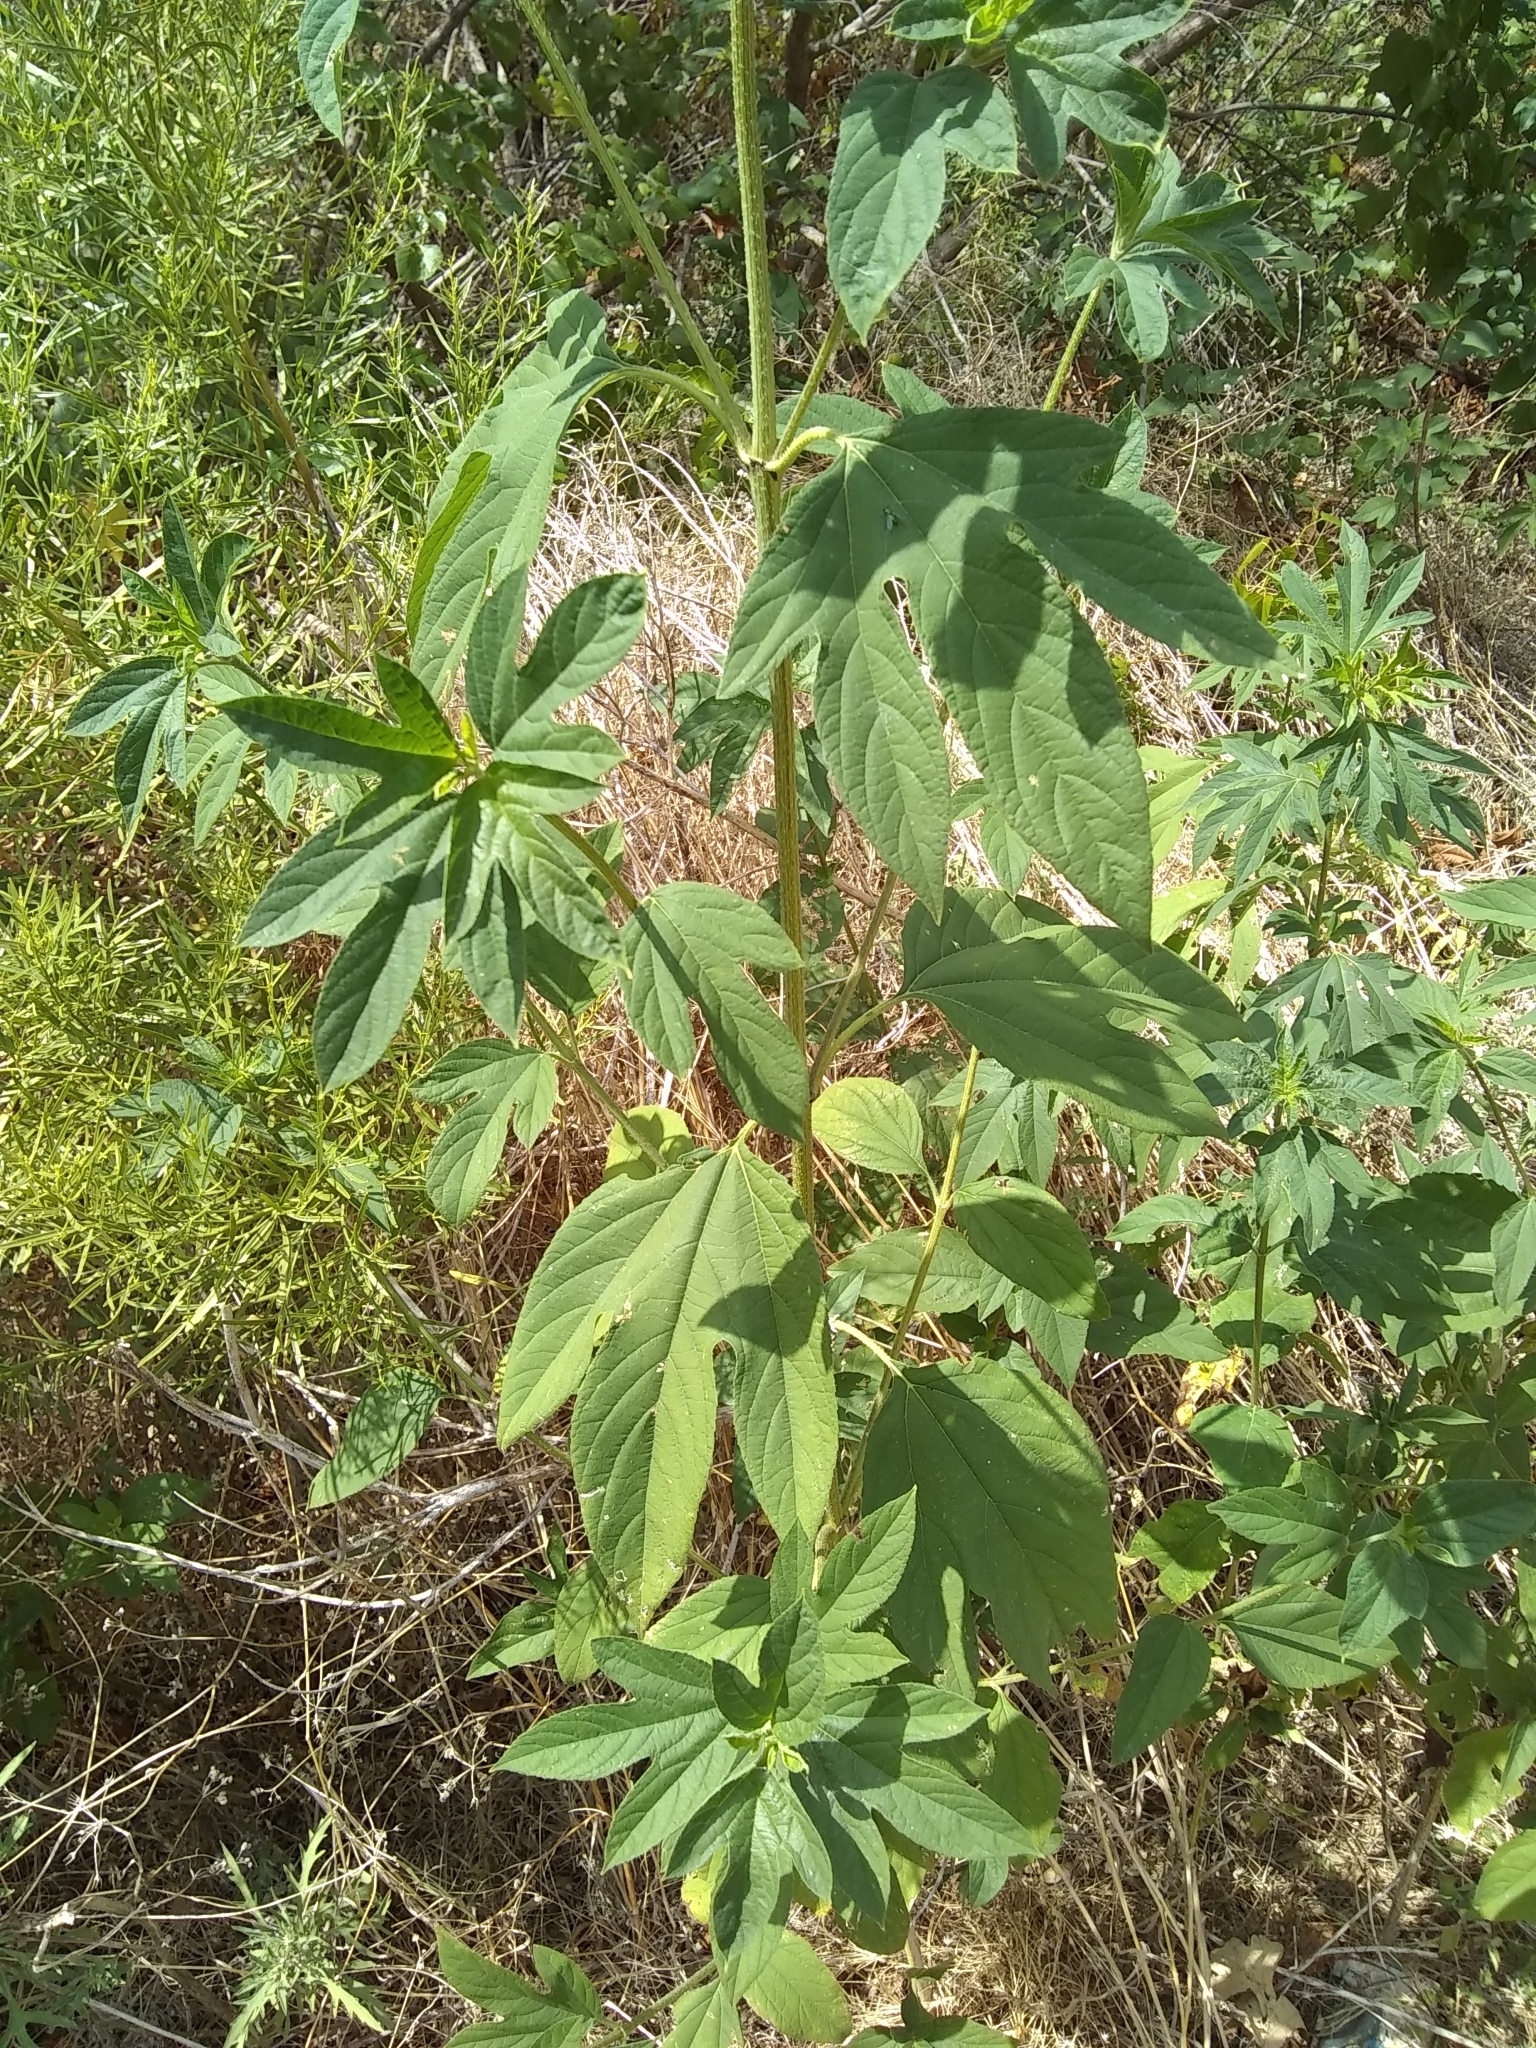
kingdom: Plantae
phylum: Tracheophyta
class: Magnoliopsida
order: Asterales
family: Asteraceae
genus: Ambrosia
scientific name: Ambrosia trifida
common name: Giant ragweed
